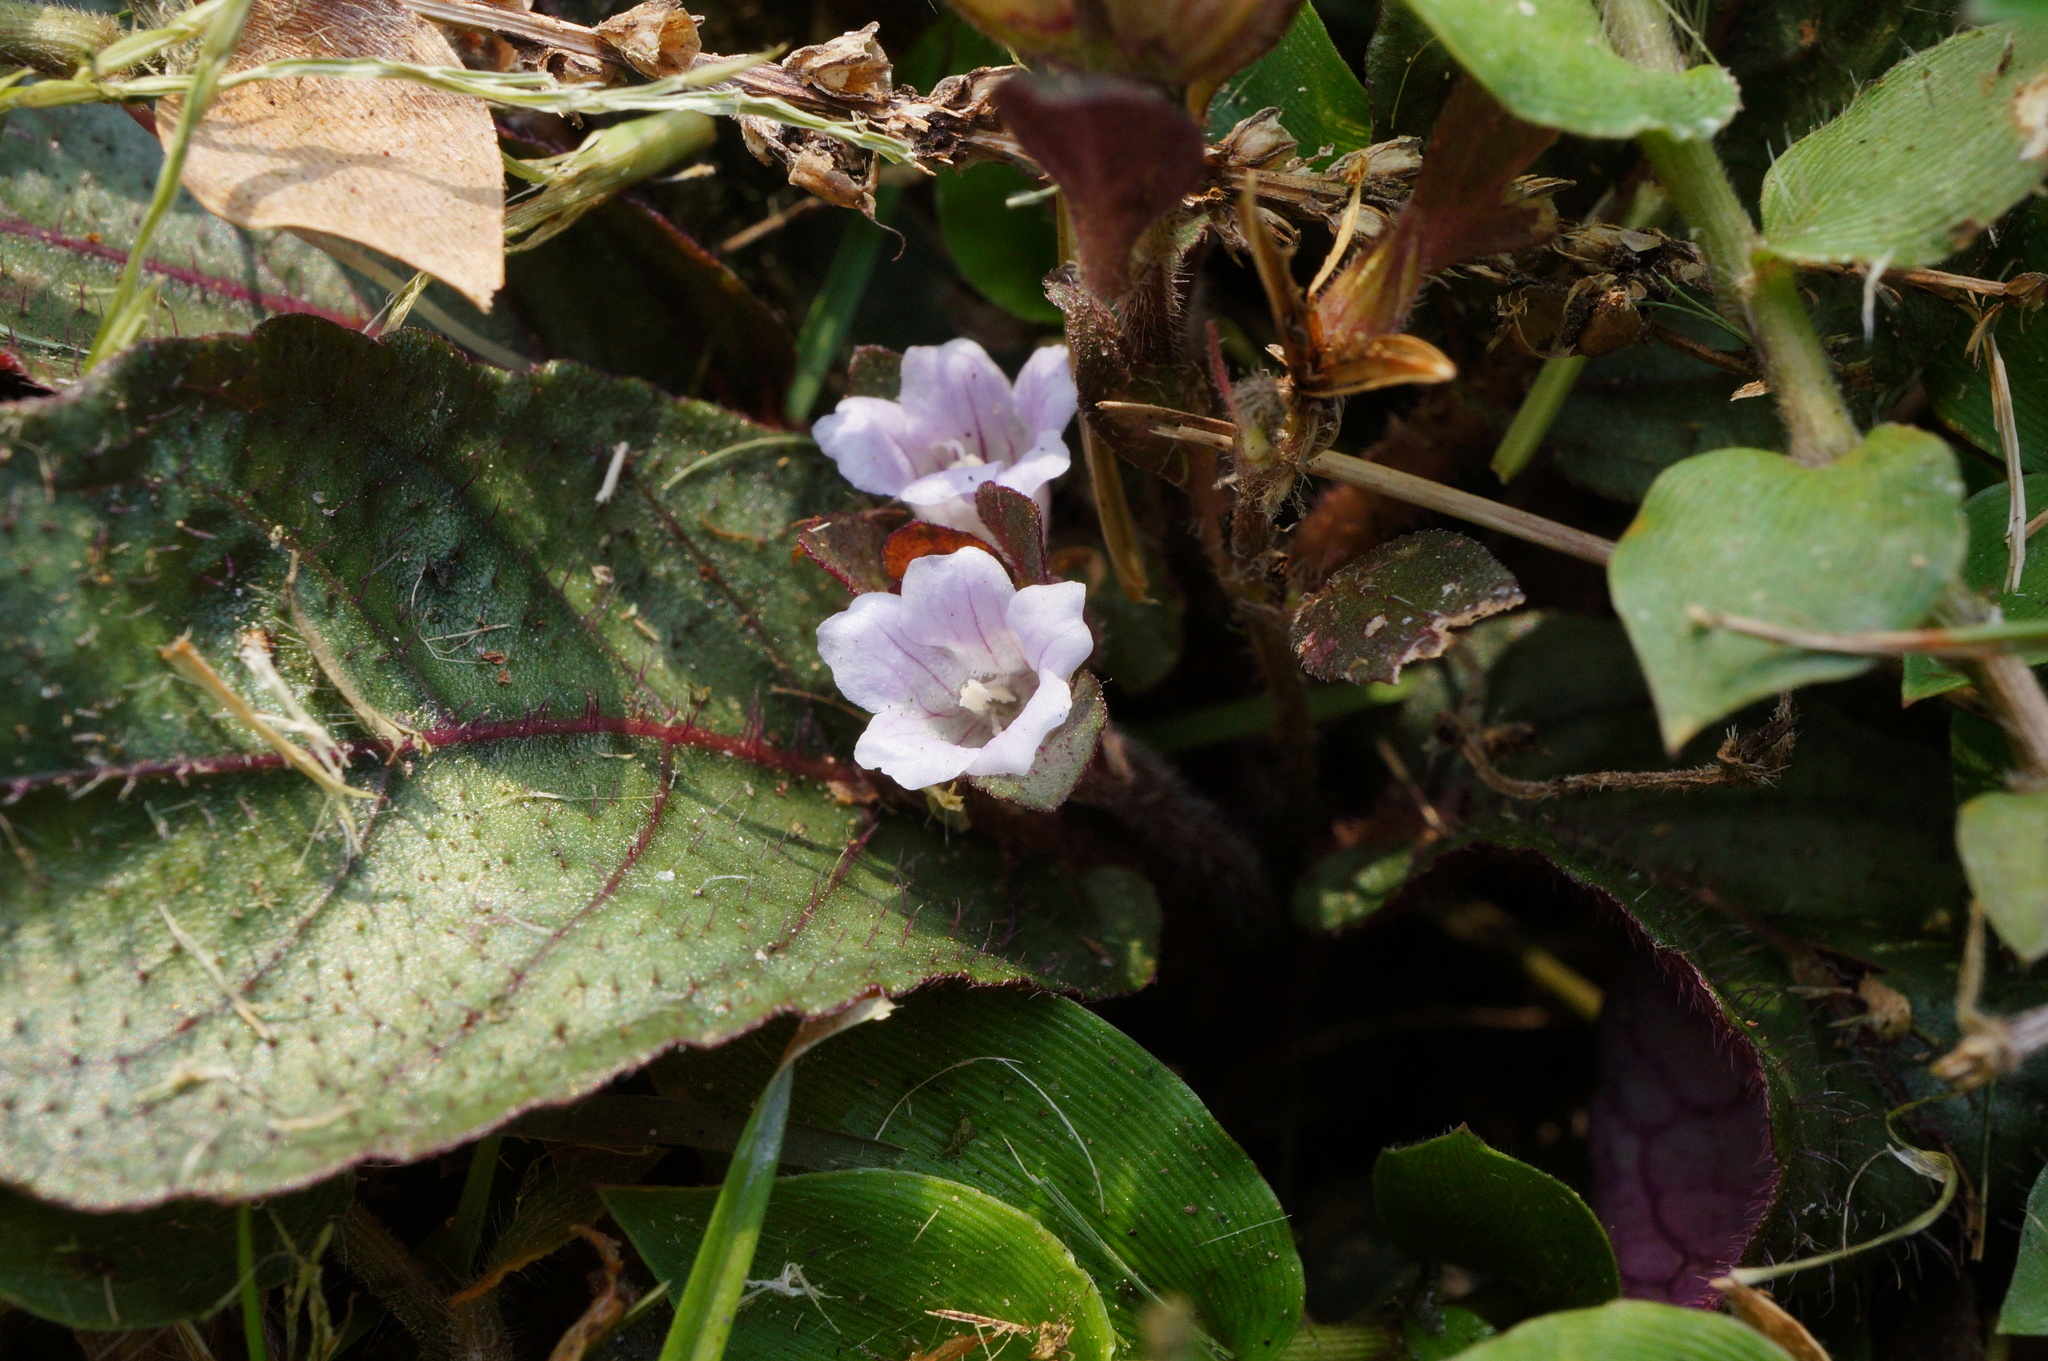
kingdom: Plantae
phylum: Tracheophyta
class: Magnoliopsida
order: Lamiales
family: Acanthaceae
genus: Strobilanthes
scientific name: Strobilanthes reptans
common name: Acanthaceae
